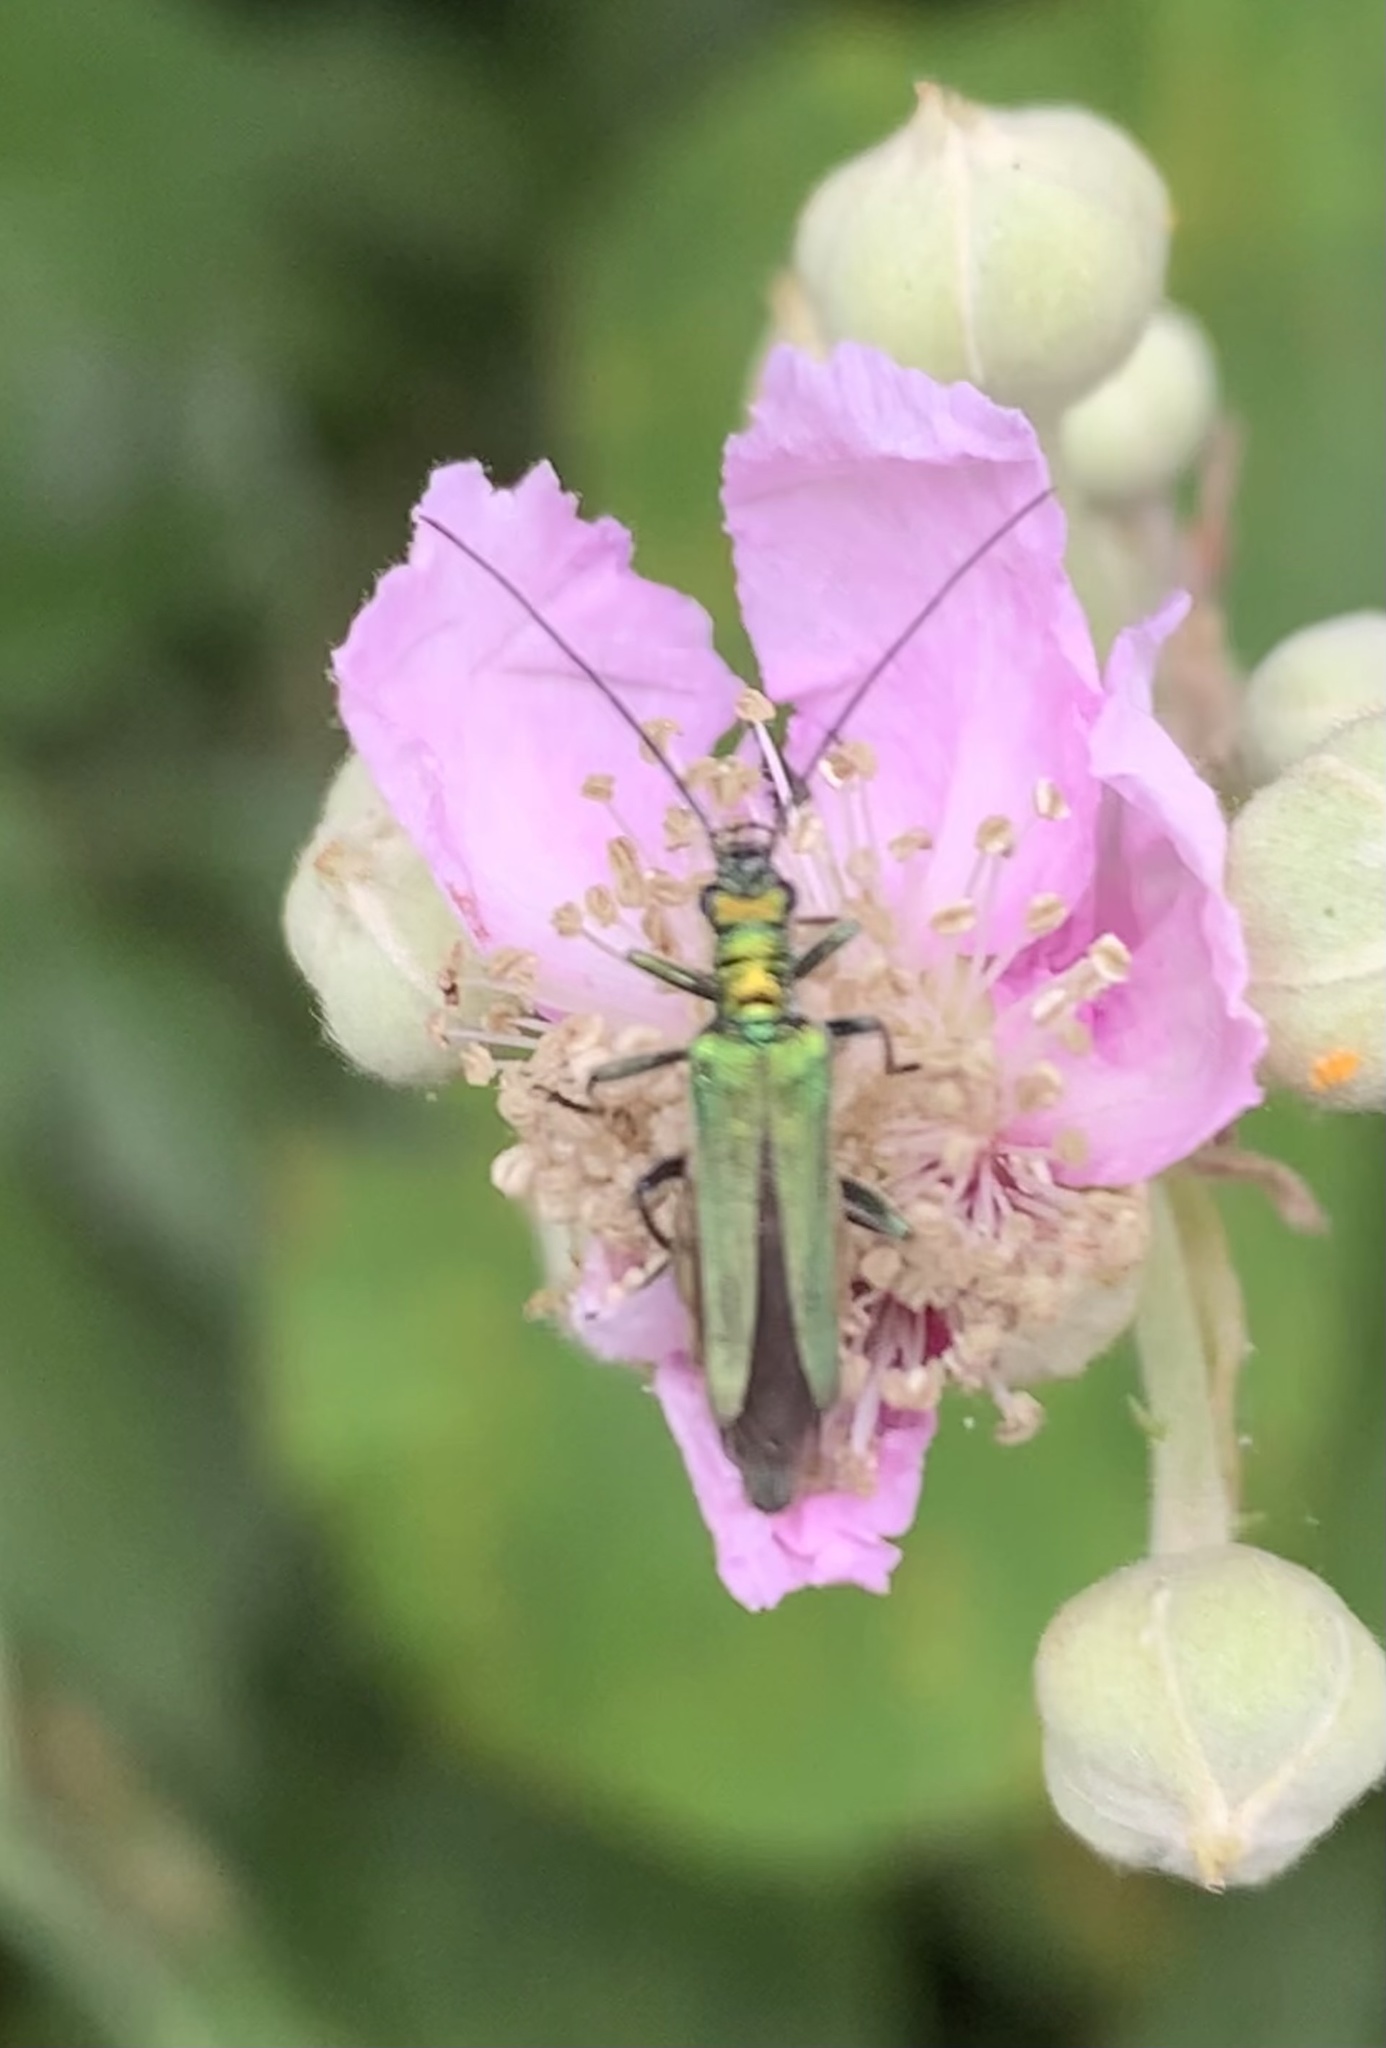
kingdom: Animalia
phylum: Arthropoda
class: Insecta
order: Coleoptera
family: Oedemeridae
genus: Oedemera
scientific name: Oedemera nobilis
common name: Swollen-thighed beetle
